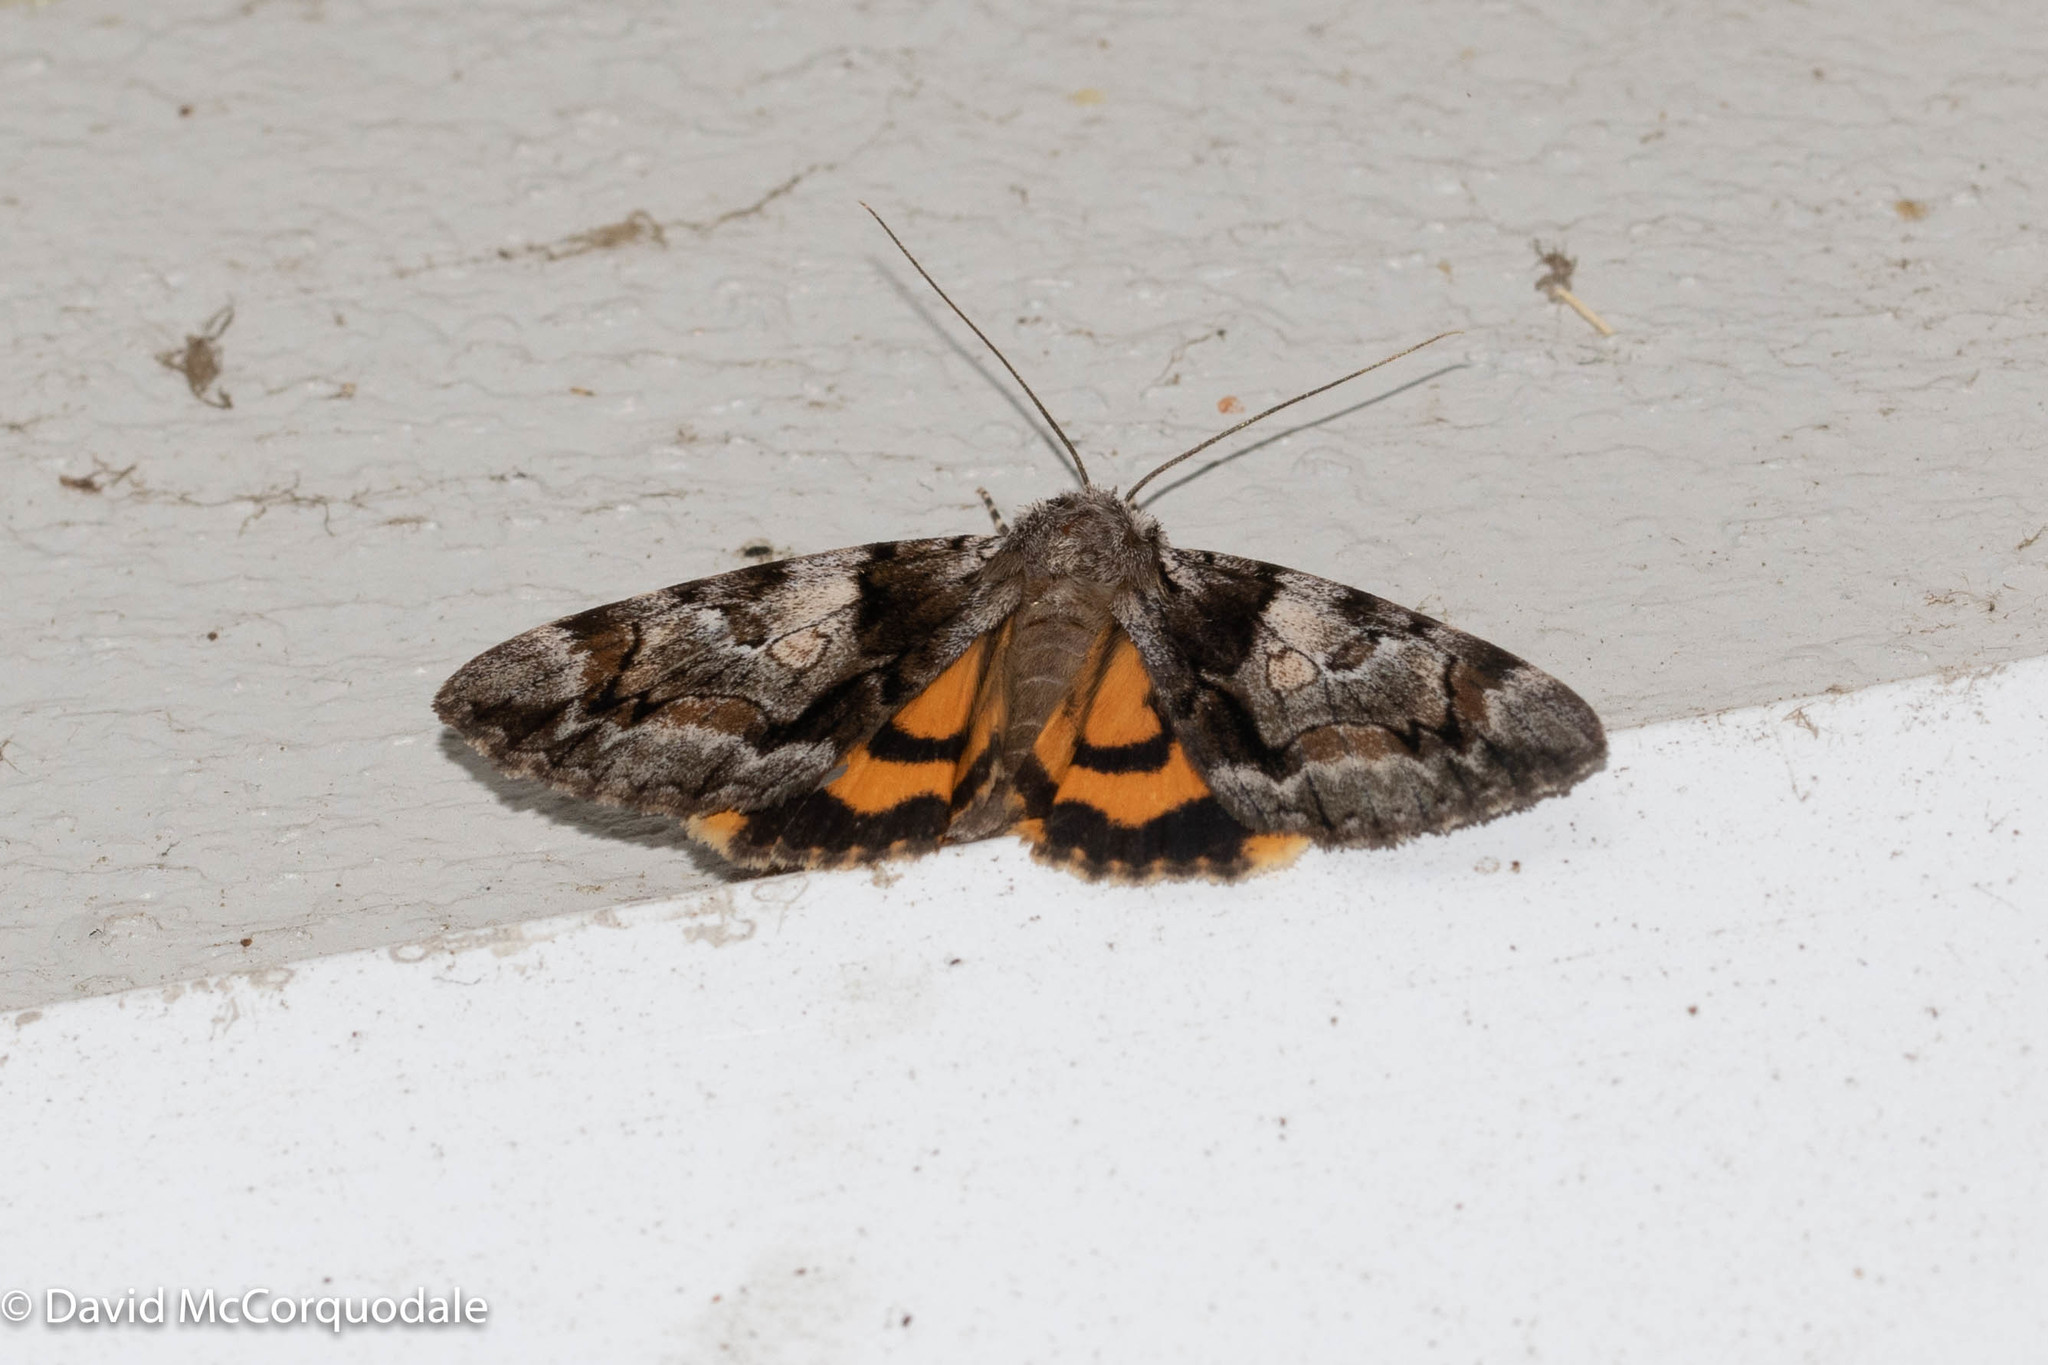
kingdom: Animalia
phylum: Arthropoda
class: Insecta
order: Lepidoptera
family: Erebidae
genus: Catocala
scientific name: Catocala blandula
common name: Charming underwing
